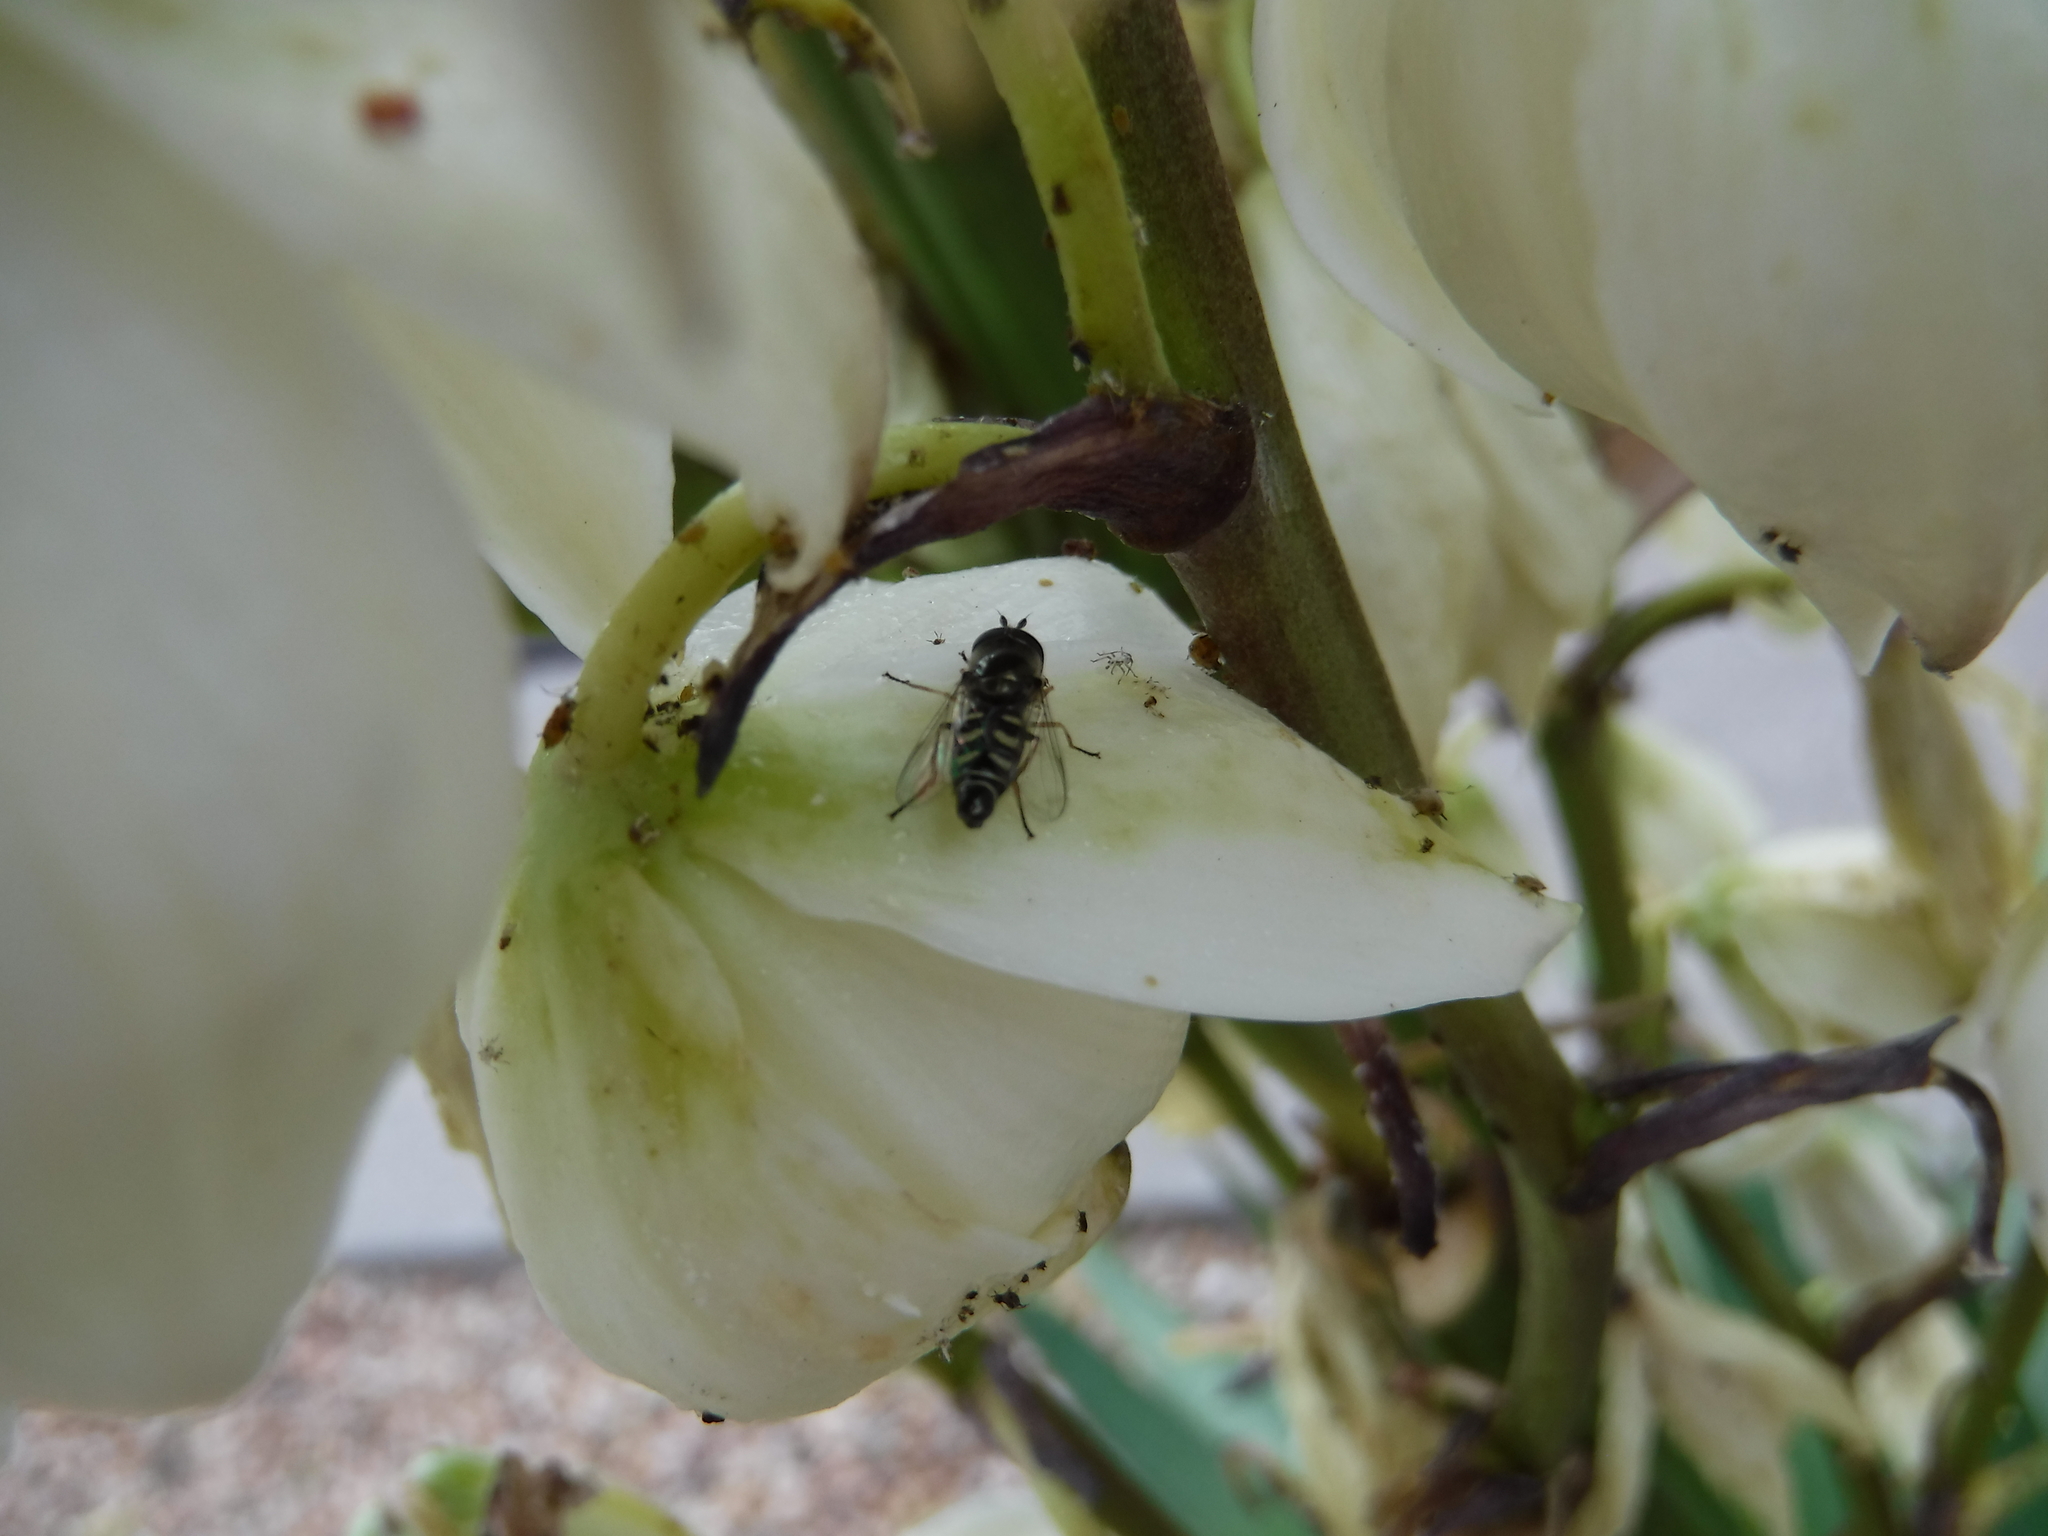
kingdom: Animalia
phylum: Arthropoda
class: Insecta
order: Diptera
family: Syrphidae
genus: Eupeodes
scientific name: Eupeodes volucris
